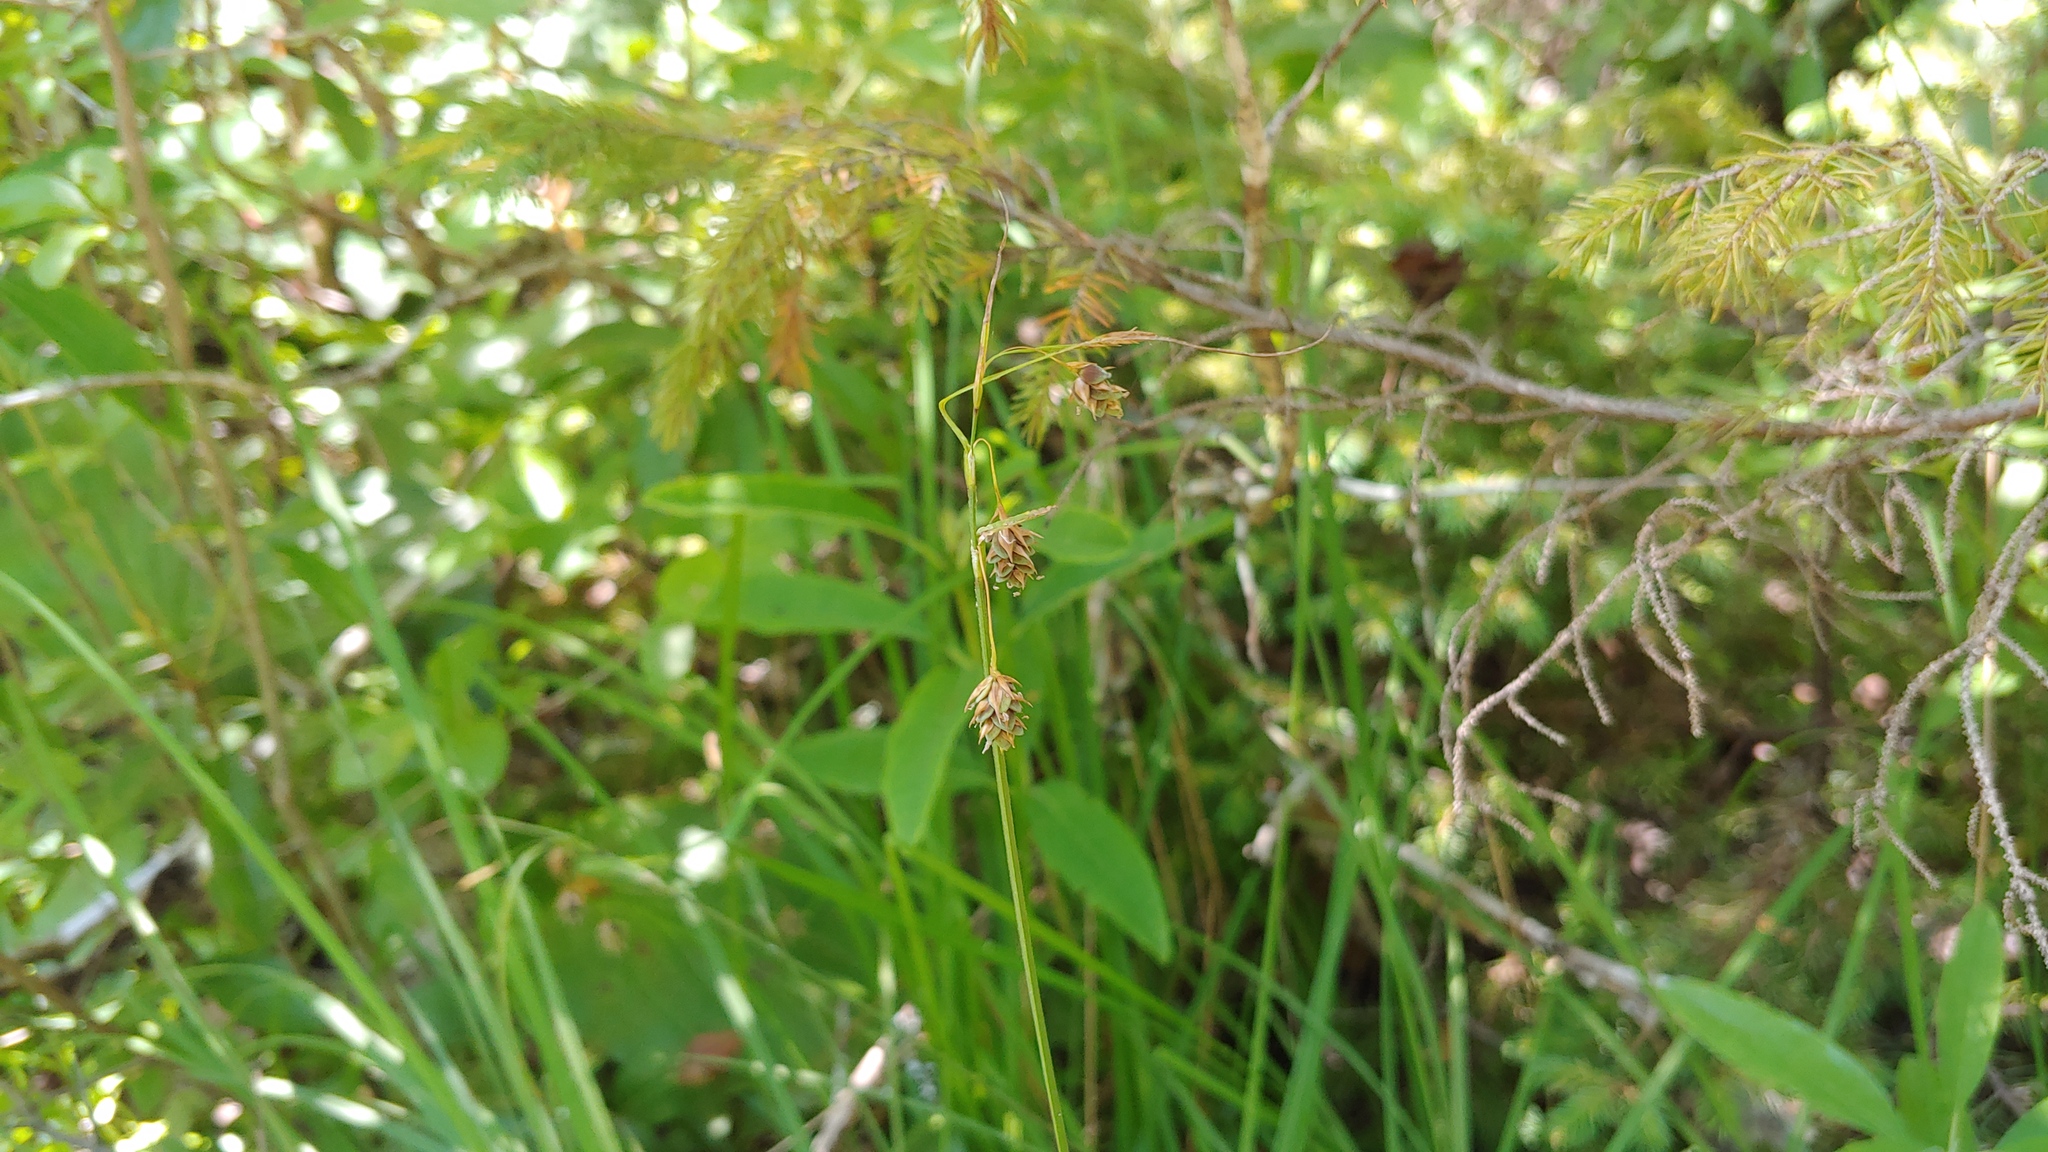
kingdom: Plantae
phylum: Tracheophyta
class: Liliopsida
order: Poales
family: Cyperaceae
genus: Carex
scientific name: Carex magellanica
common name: Bog sedge
